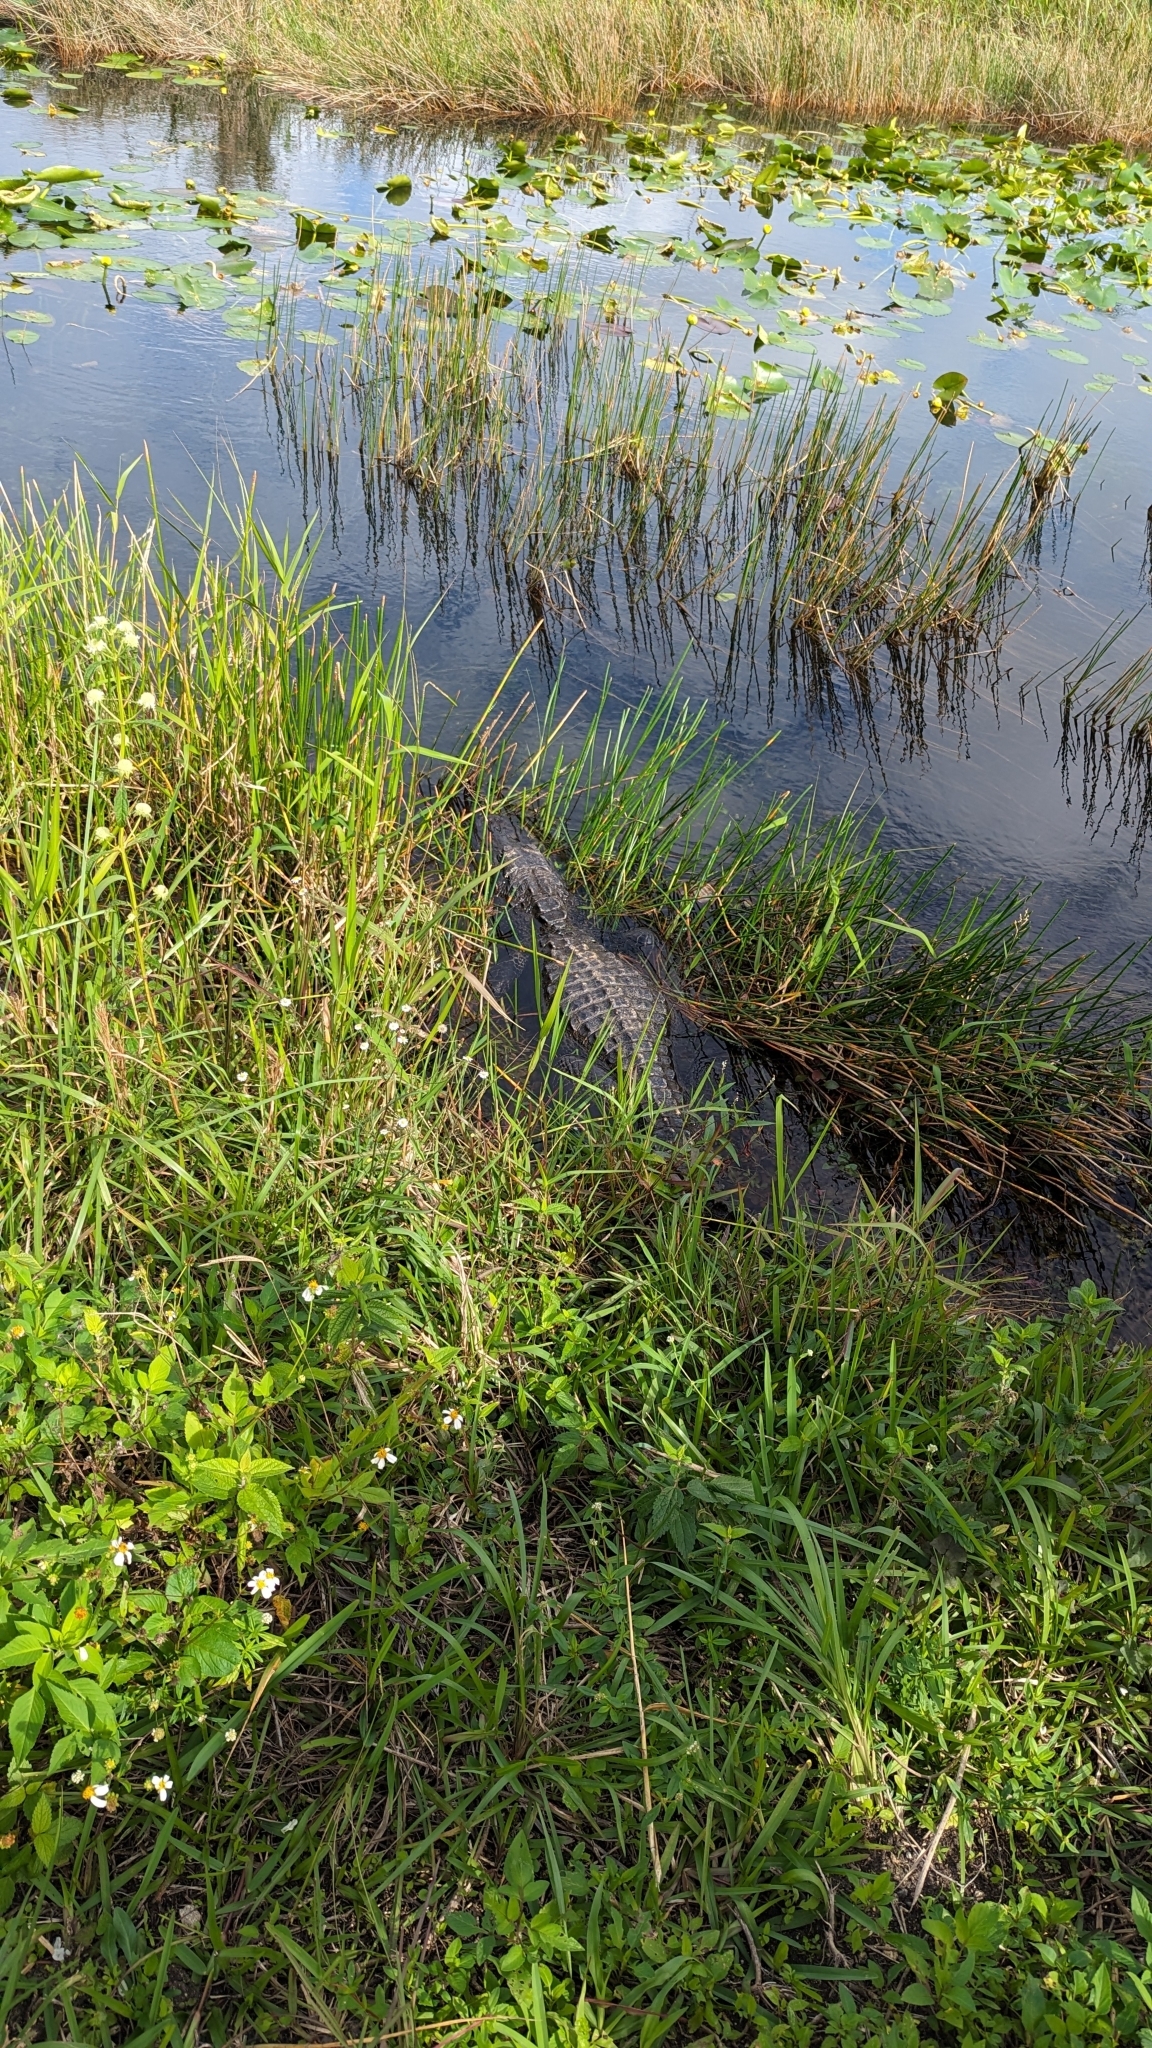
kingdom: Animalia
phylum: Chordata
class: Crocodylia
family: Alligatoridae
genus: Alligator
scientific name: Alligator mississippiensis
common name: American alligator
